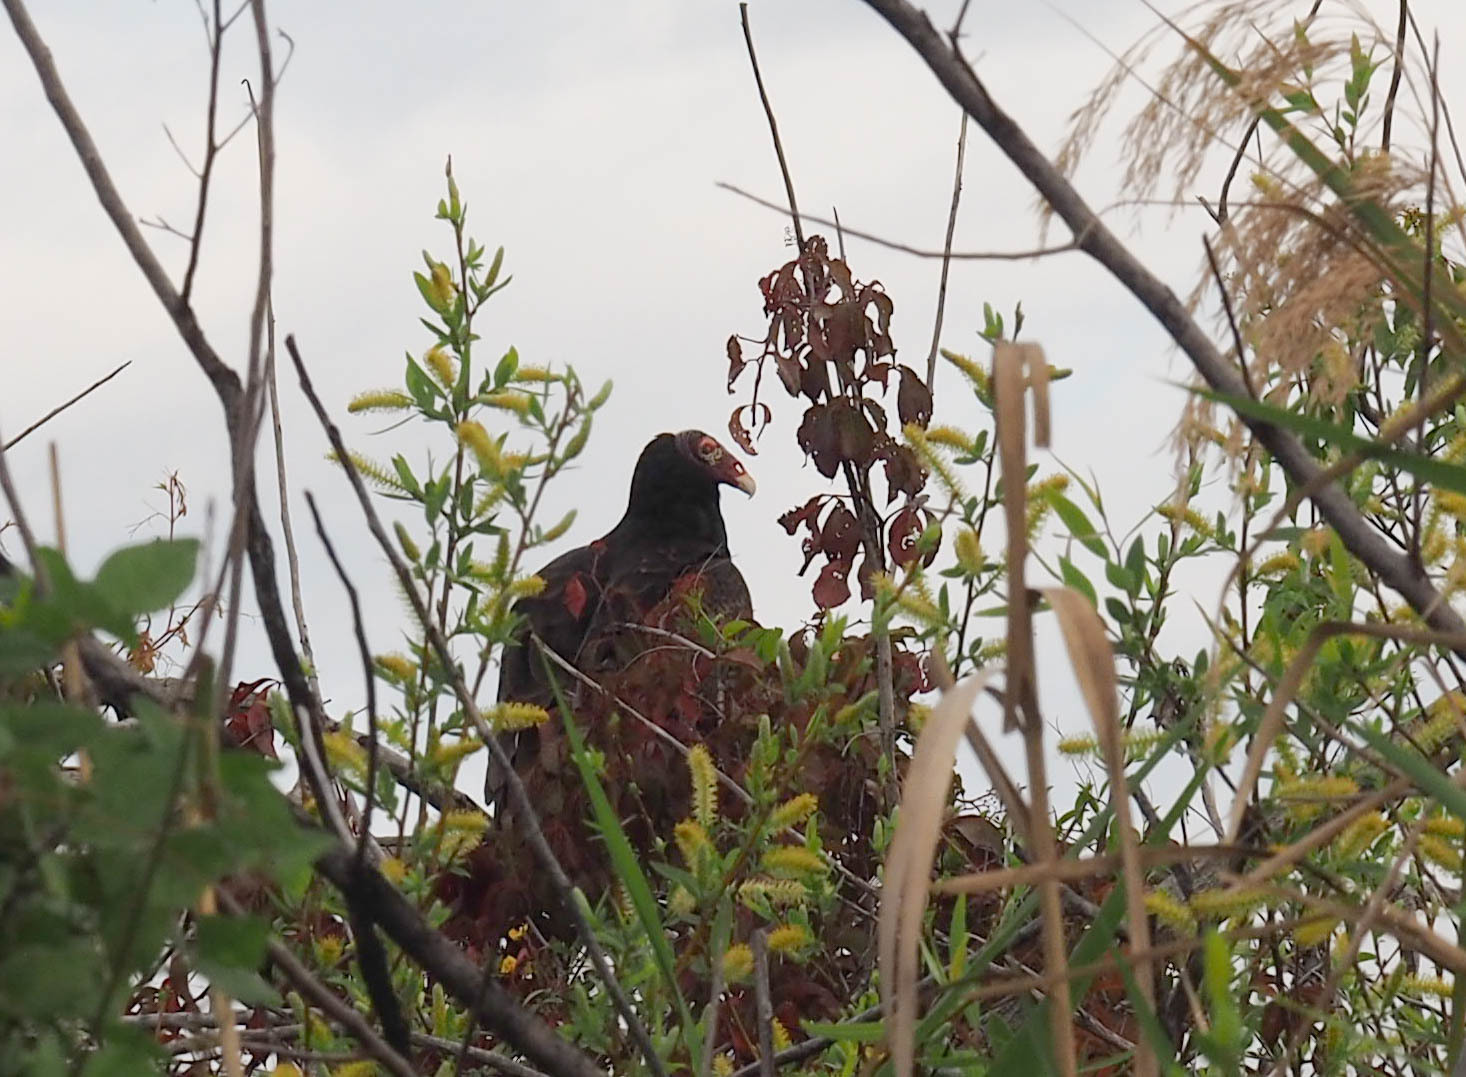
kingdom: Animalia
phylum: Chordata
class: Aves
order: Accipitriformes
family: Cathartidae
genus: Cathartes
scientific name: Cathartes aura
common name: Turkey vulture
